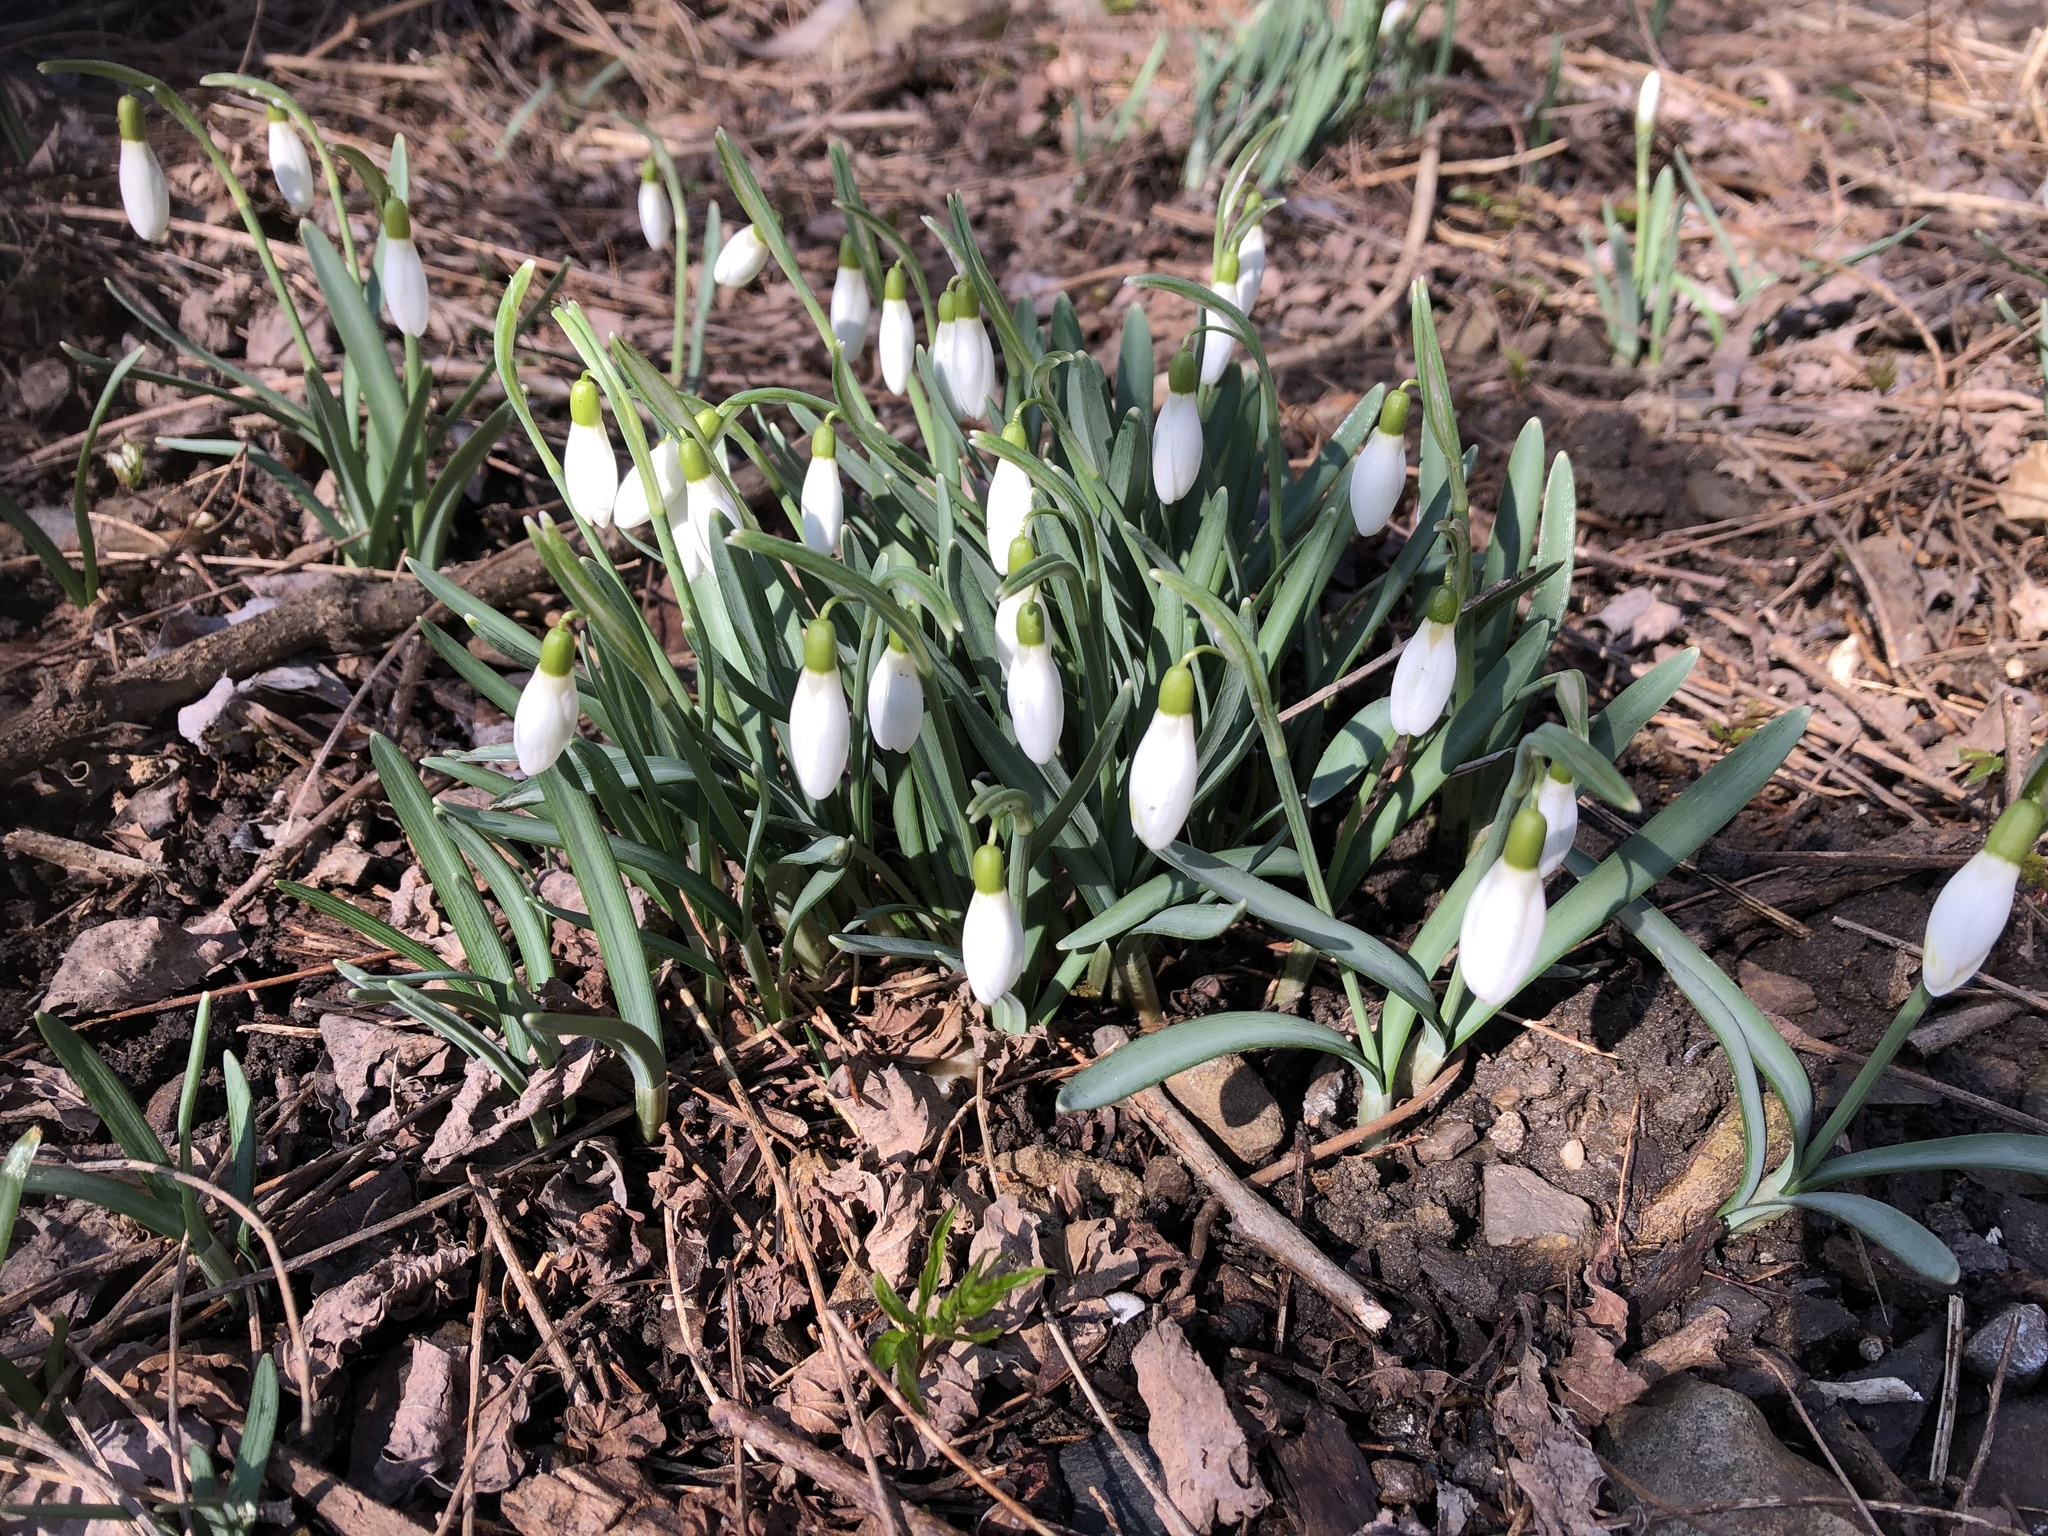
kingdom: Plantae
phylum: Tracheophyta
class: Liliopsida
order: Asparagales
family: Amaryllidaceae
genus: Galanthus
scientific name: Galanthus nivalis
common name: Snowdrop
